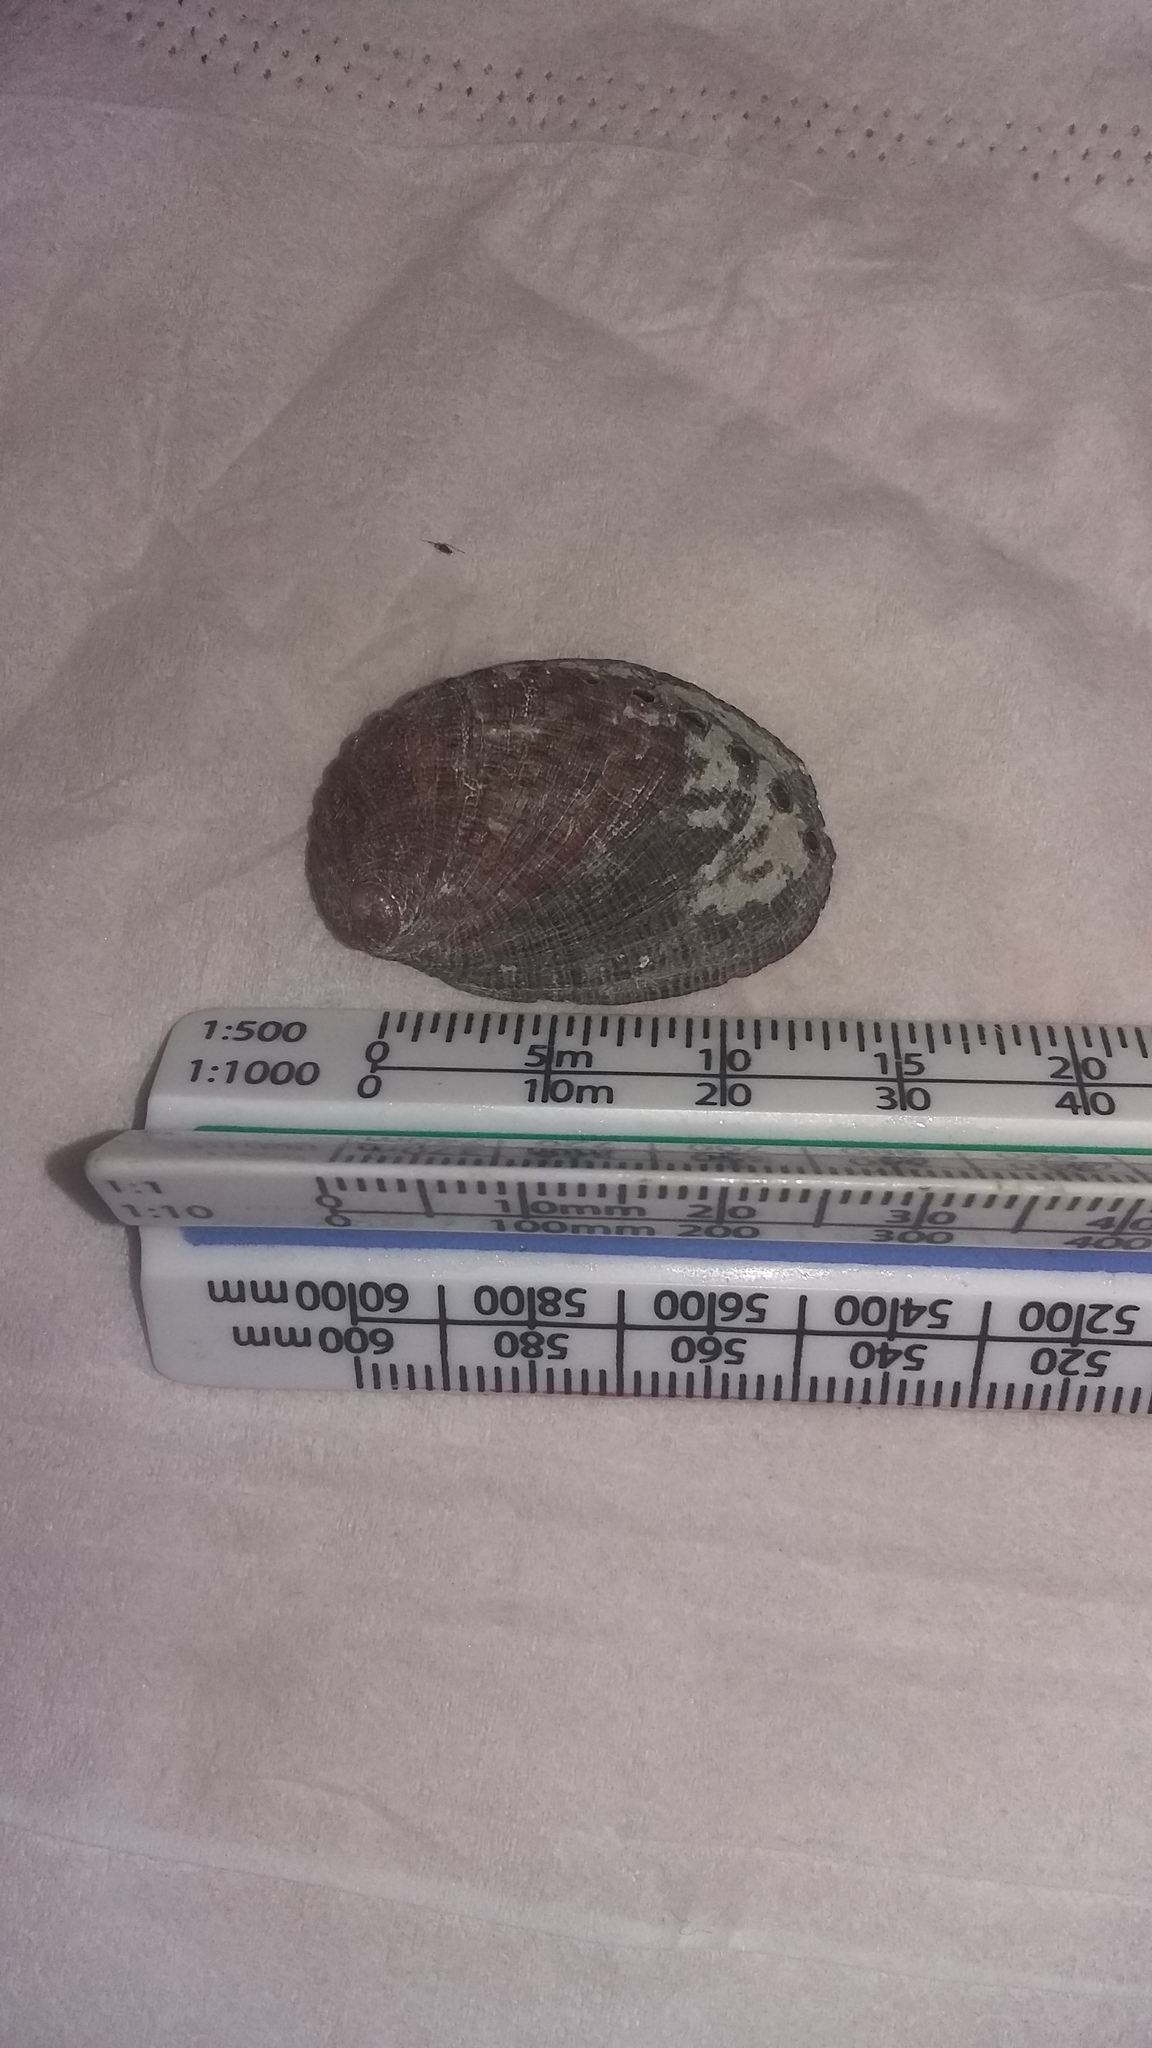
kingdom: Animalia
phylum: Mollusca
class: Gastropoda
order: Lepetellida
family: Haliotidae
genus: Haliotis
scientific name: Haliotis virginea
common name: Whitefoot paua
